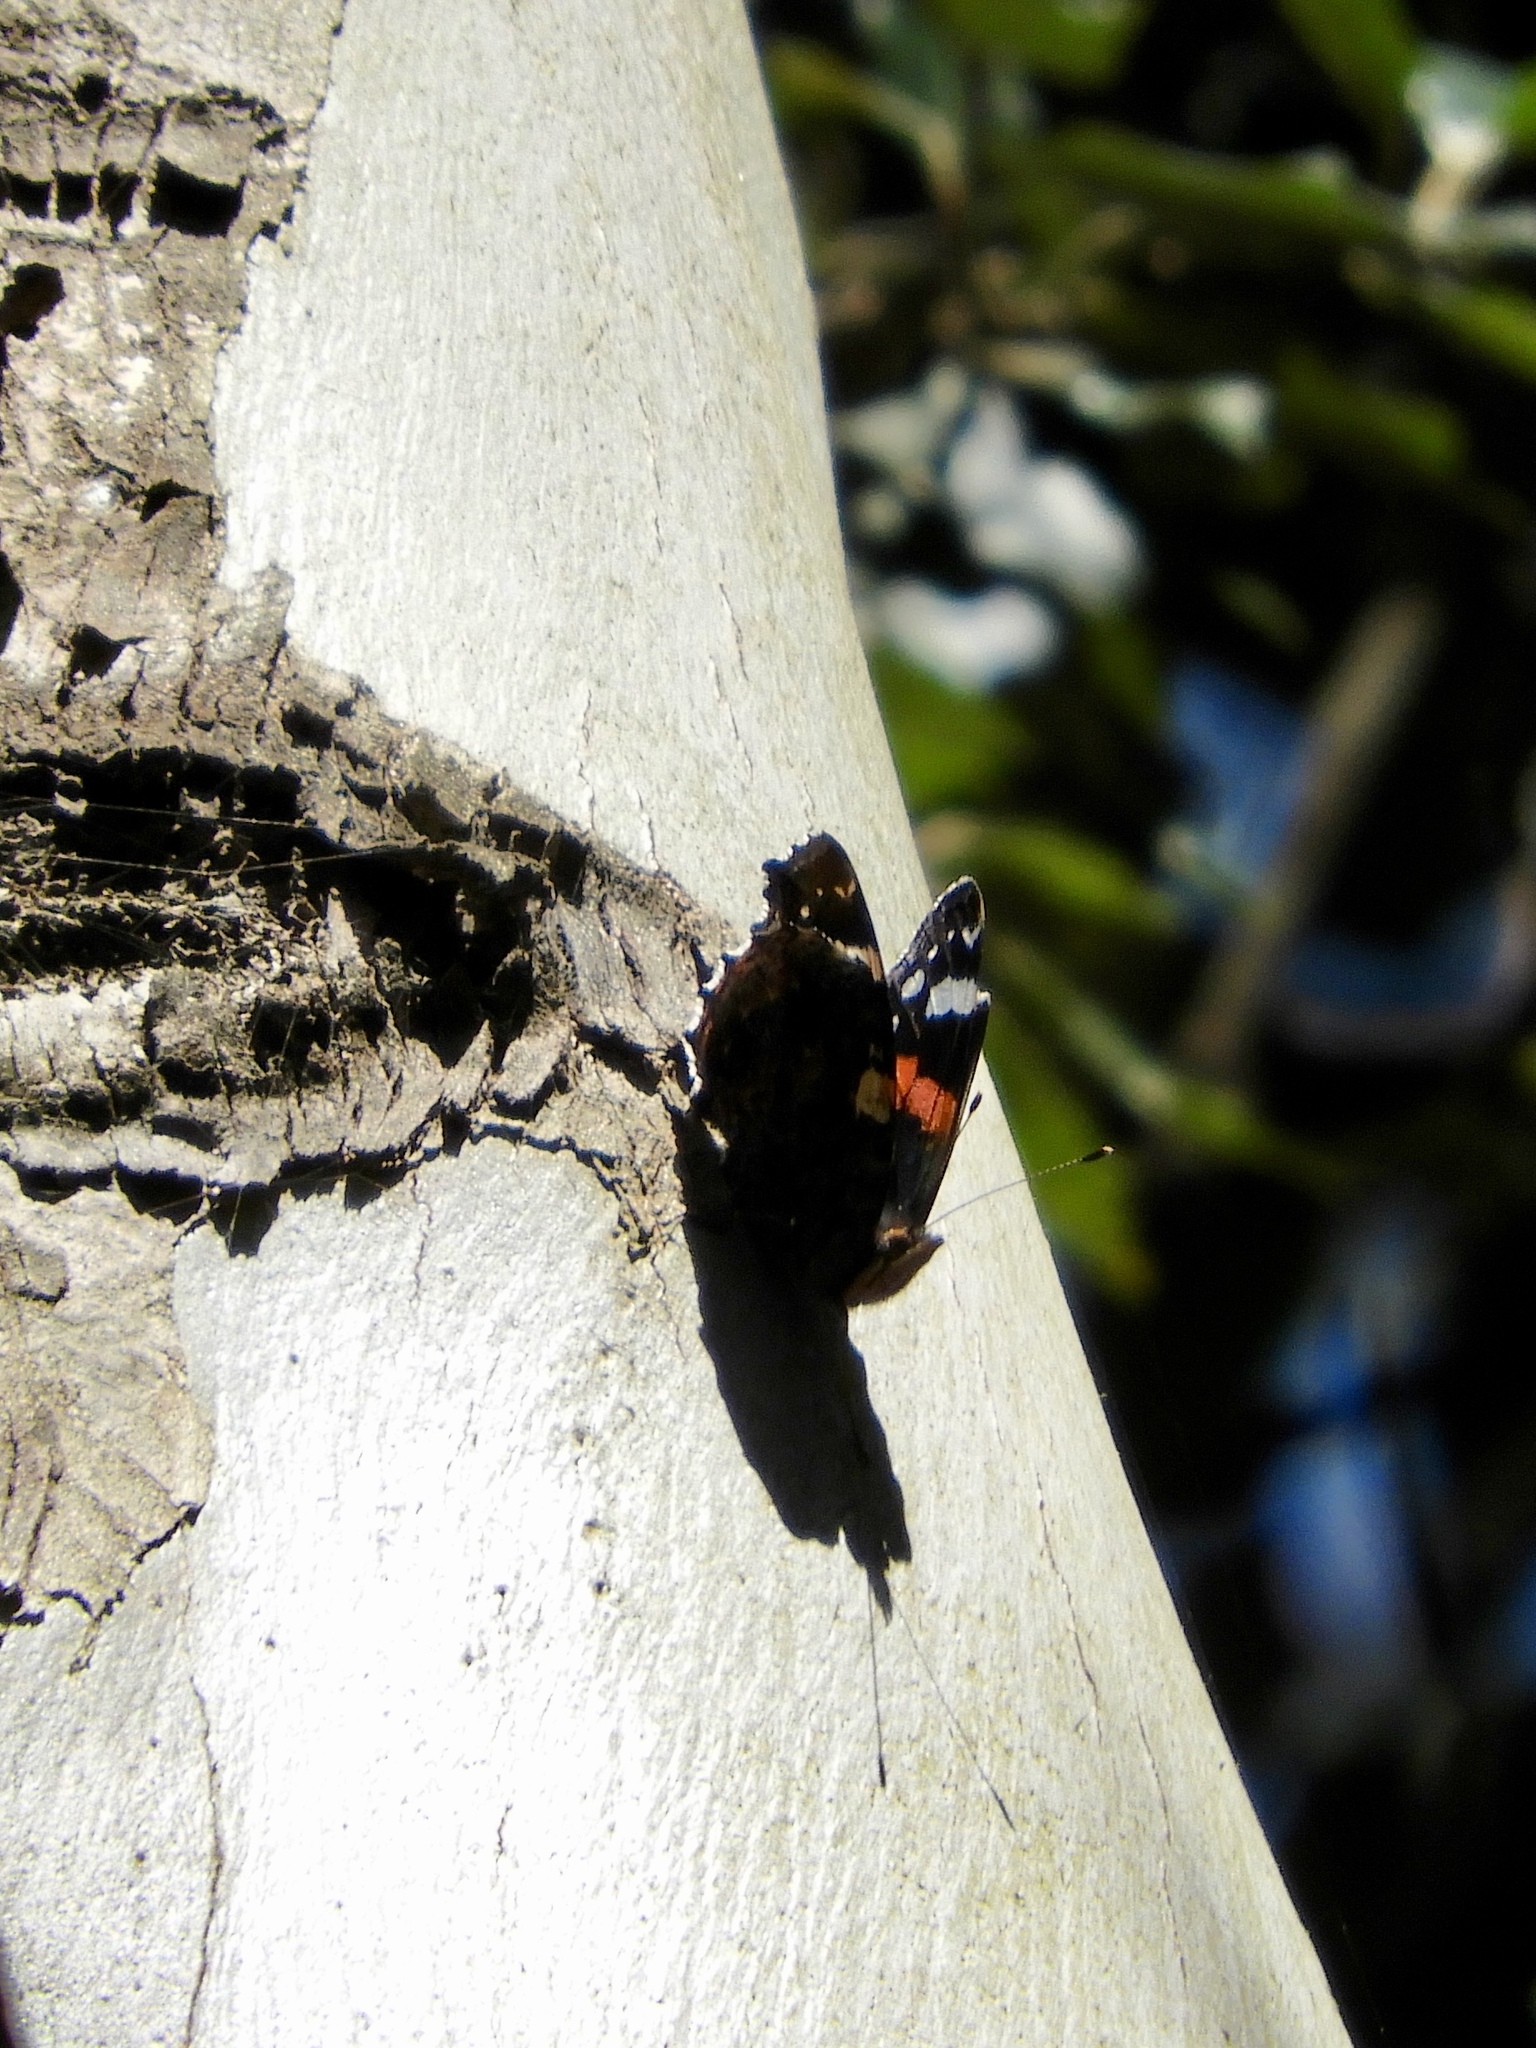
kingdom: Animalia
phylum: Arthropoda
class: Insecta
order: Lepidoptera
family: Nymphalidae
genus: Vanessa
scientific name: Vanessa atalanta
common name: Red admiral
